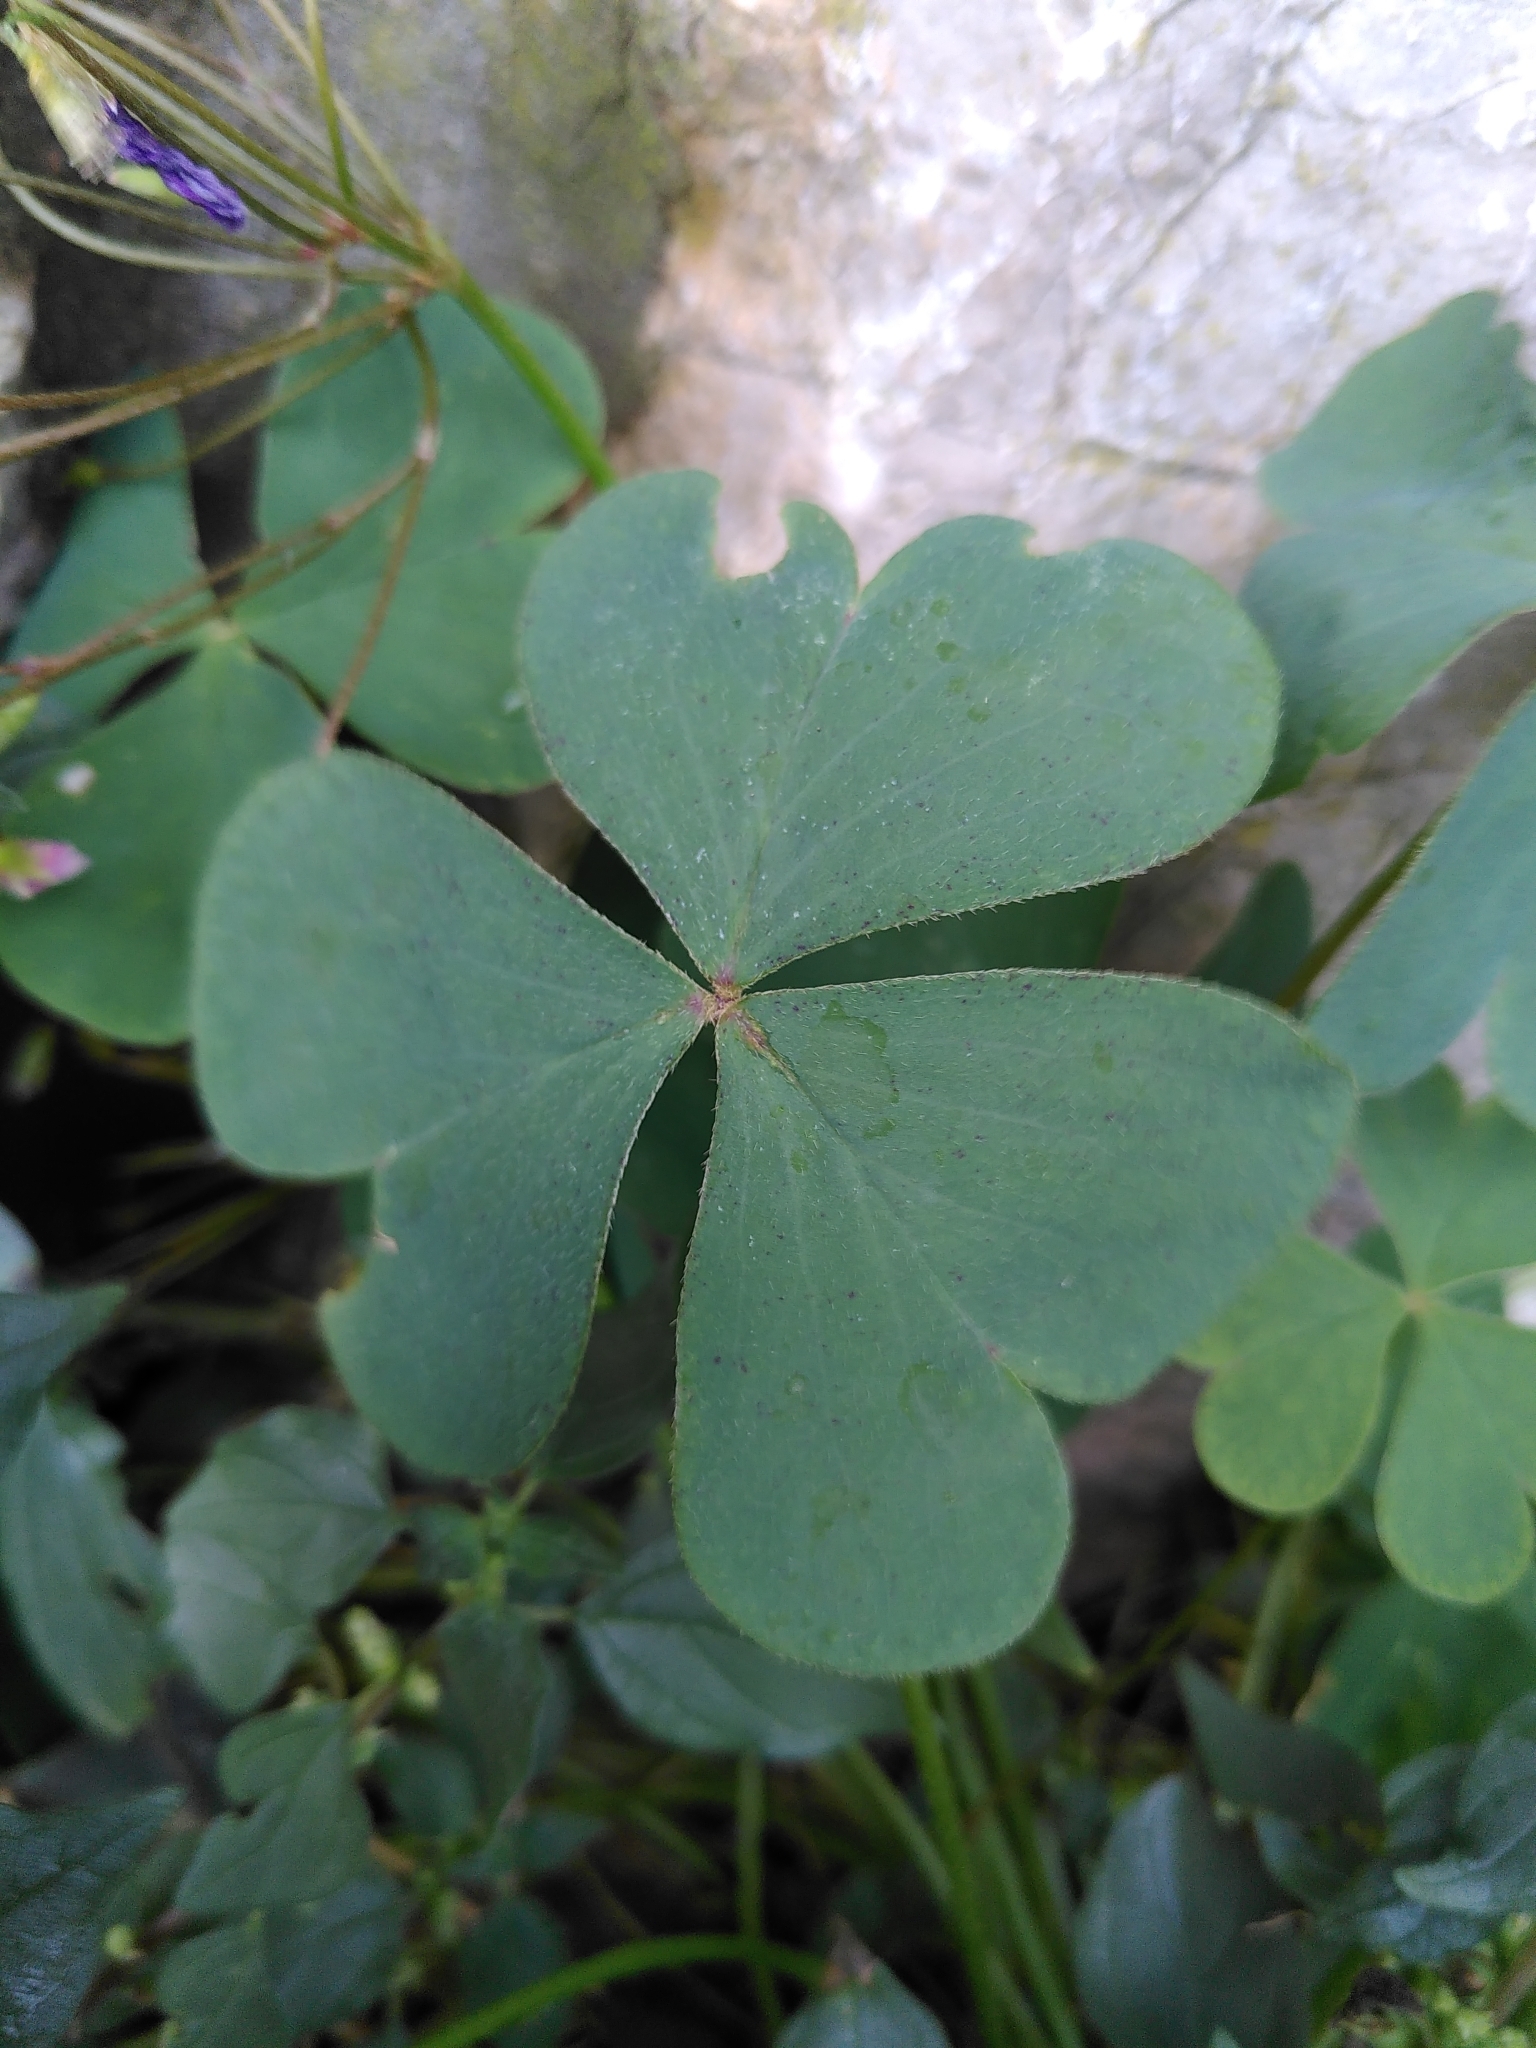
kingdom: Plantae
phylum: Tracheophyta
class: Magnoliopsida
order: Oxalidales
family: Oxalidaceae
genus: Oxalis
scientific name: Oxalis articulata
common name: Pink-sorrel
